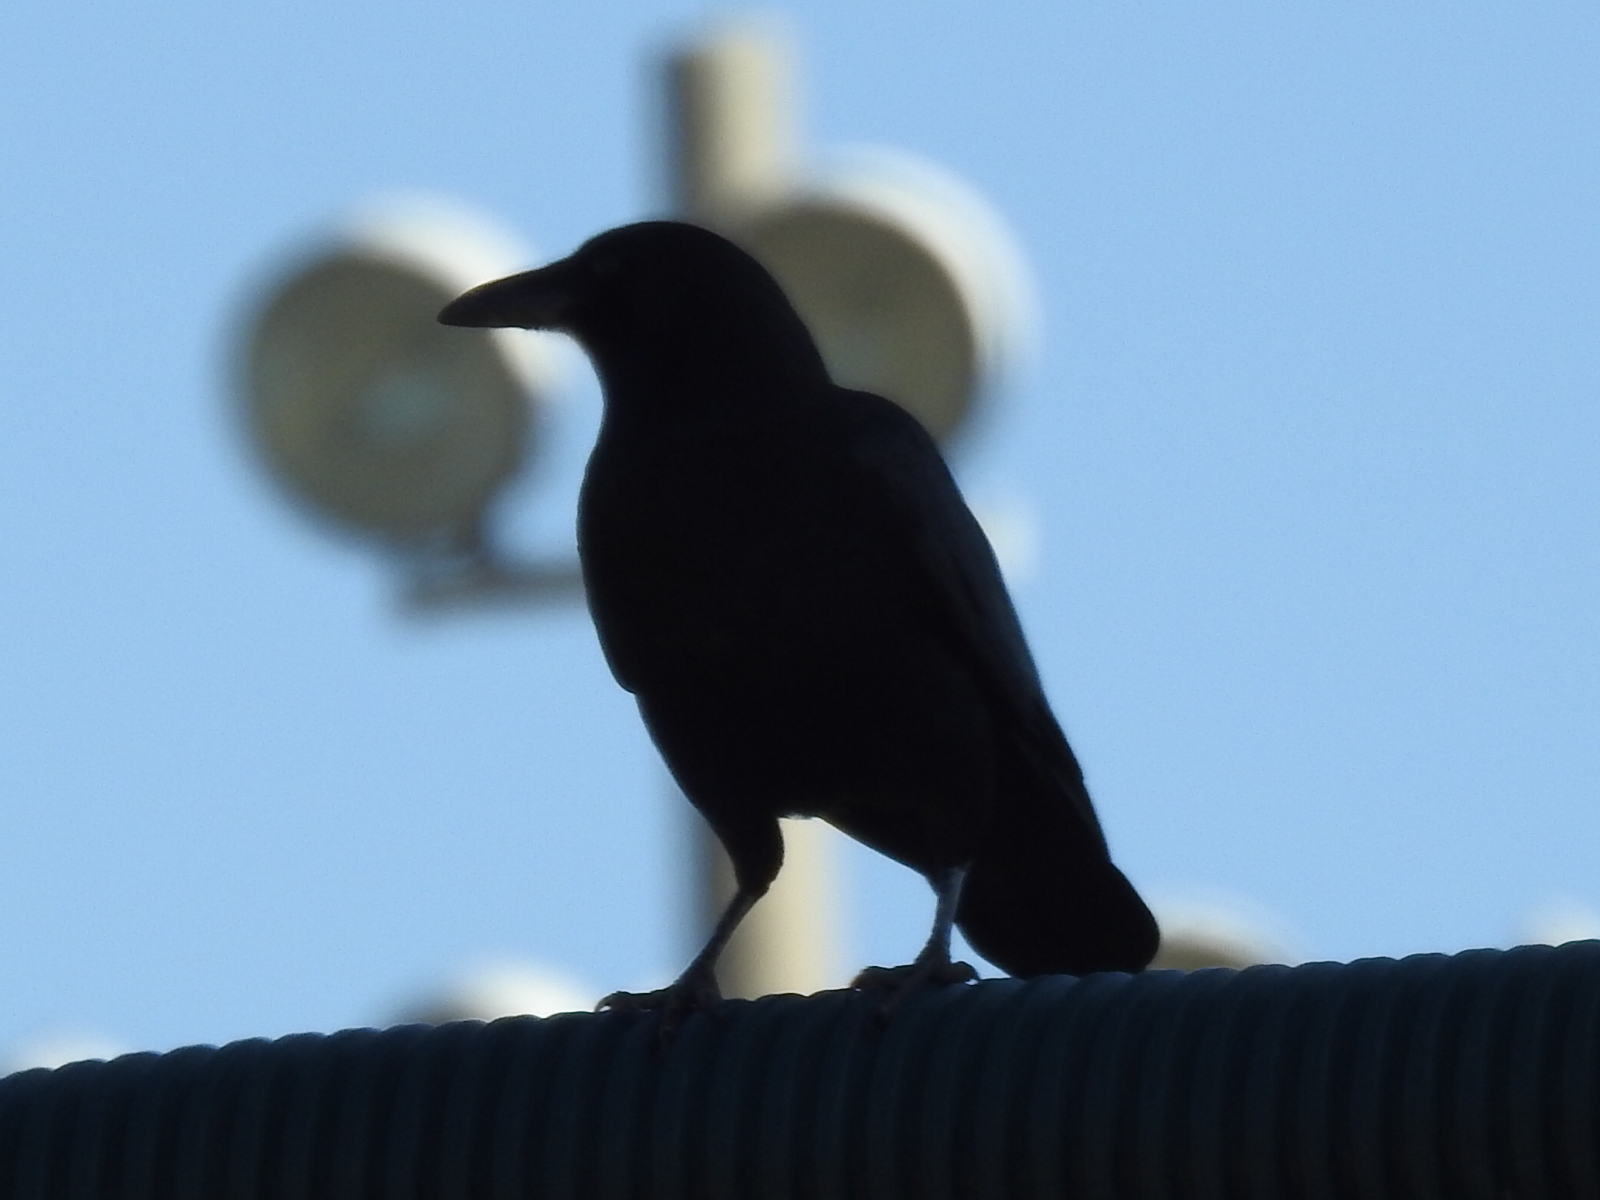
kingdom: Animalia
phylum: Chordata
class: Aves
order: Passeriformes
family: Corvidae
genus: Corvus
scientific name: Corvus brachyrhynchos
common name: American crow
